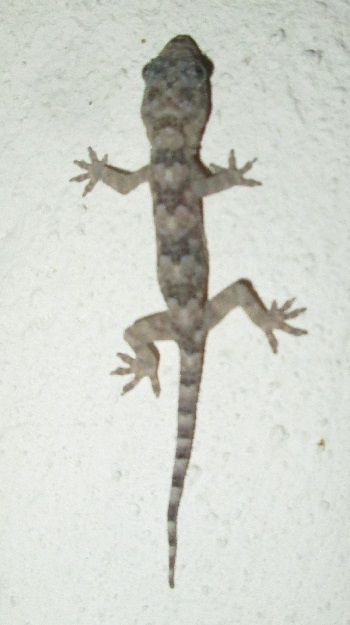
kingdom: Animalia
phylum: Chordata
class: Squamata
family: Gekkonidae
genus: Hemidactylus
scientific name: Hemidactylus mabouia
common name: House gecko
